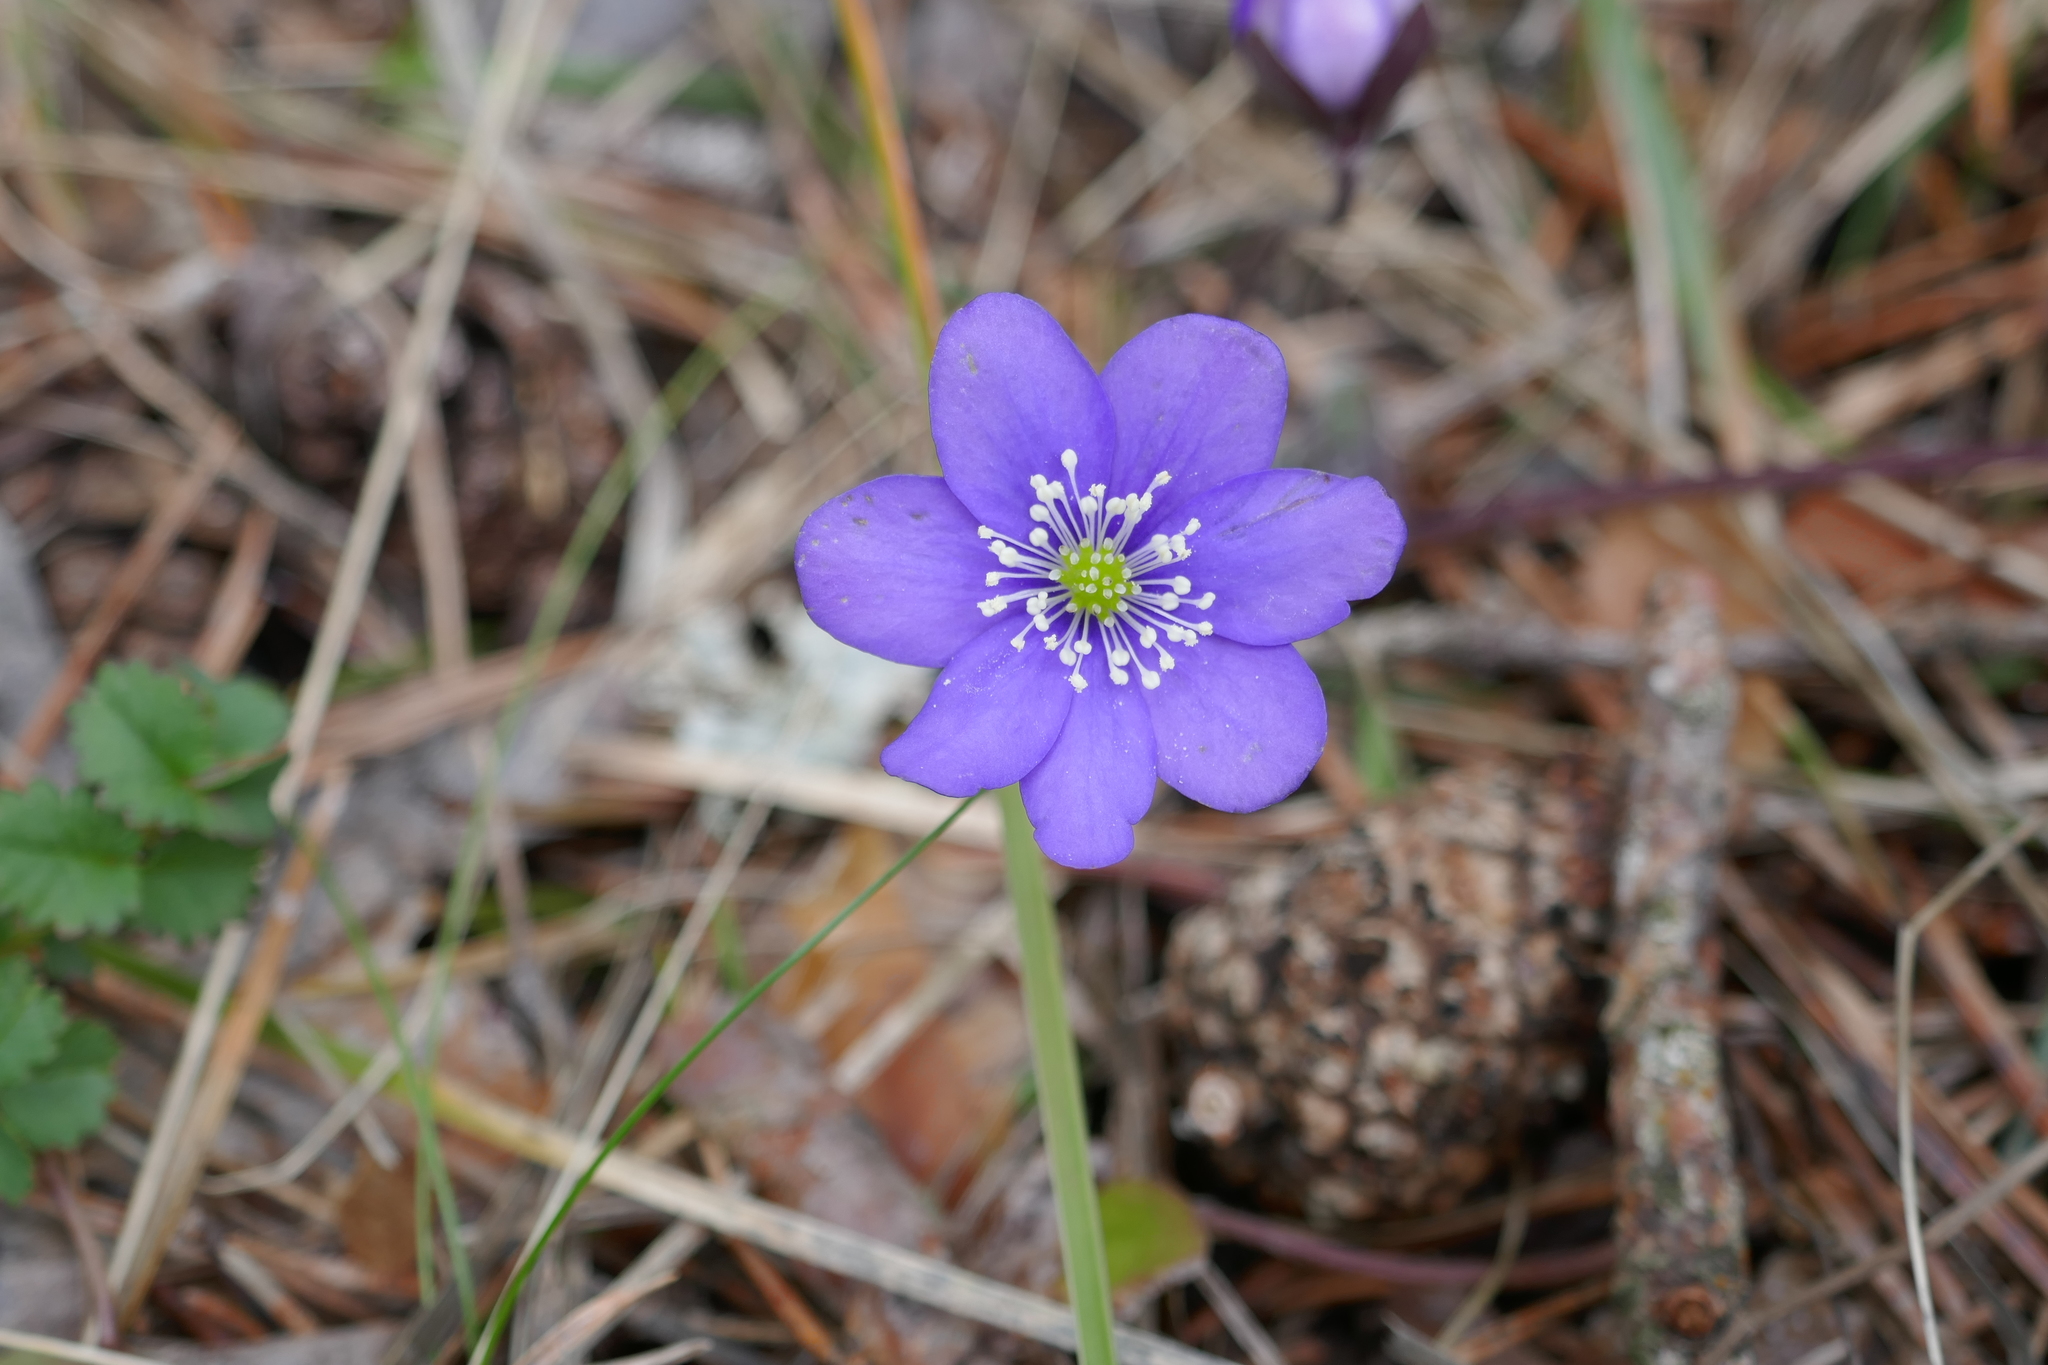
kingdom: Plantae
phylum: Tracheophyta
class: Magnoliopsida
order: Ranunculales
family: Ranunculaceae
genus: Hepatica
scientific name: Hepatica nobilis
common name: Liverleaf
